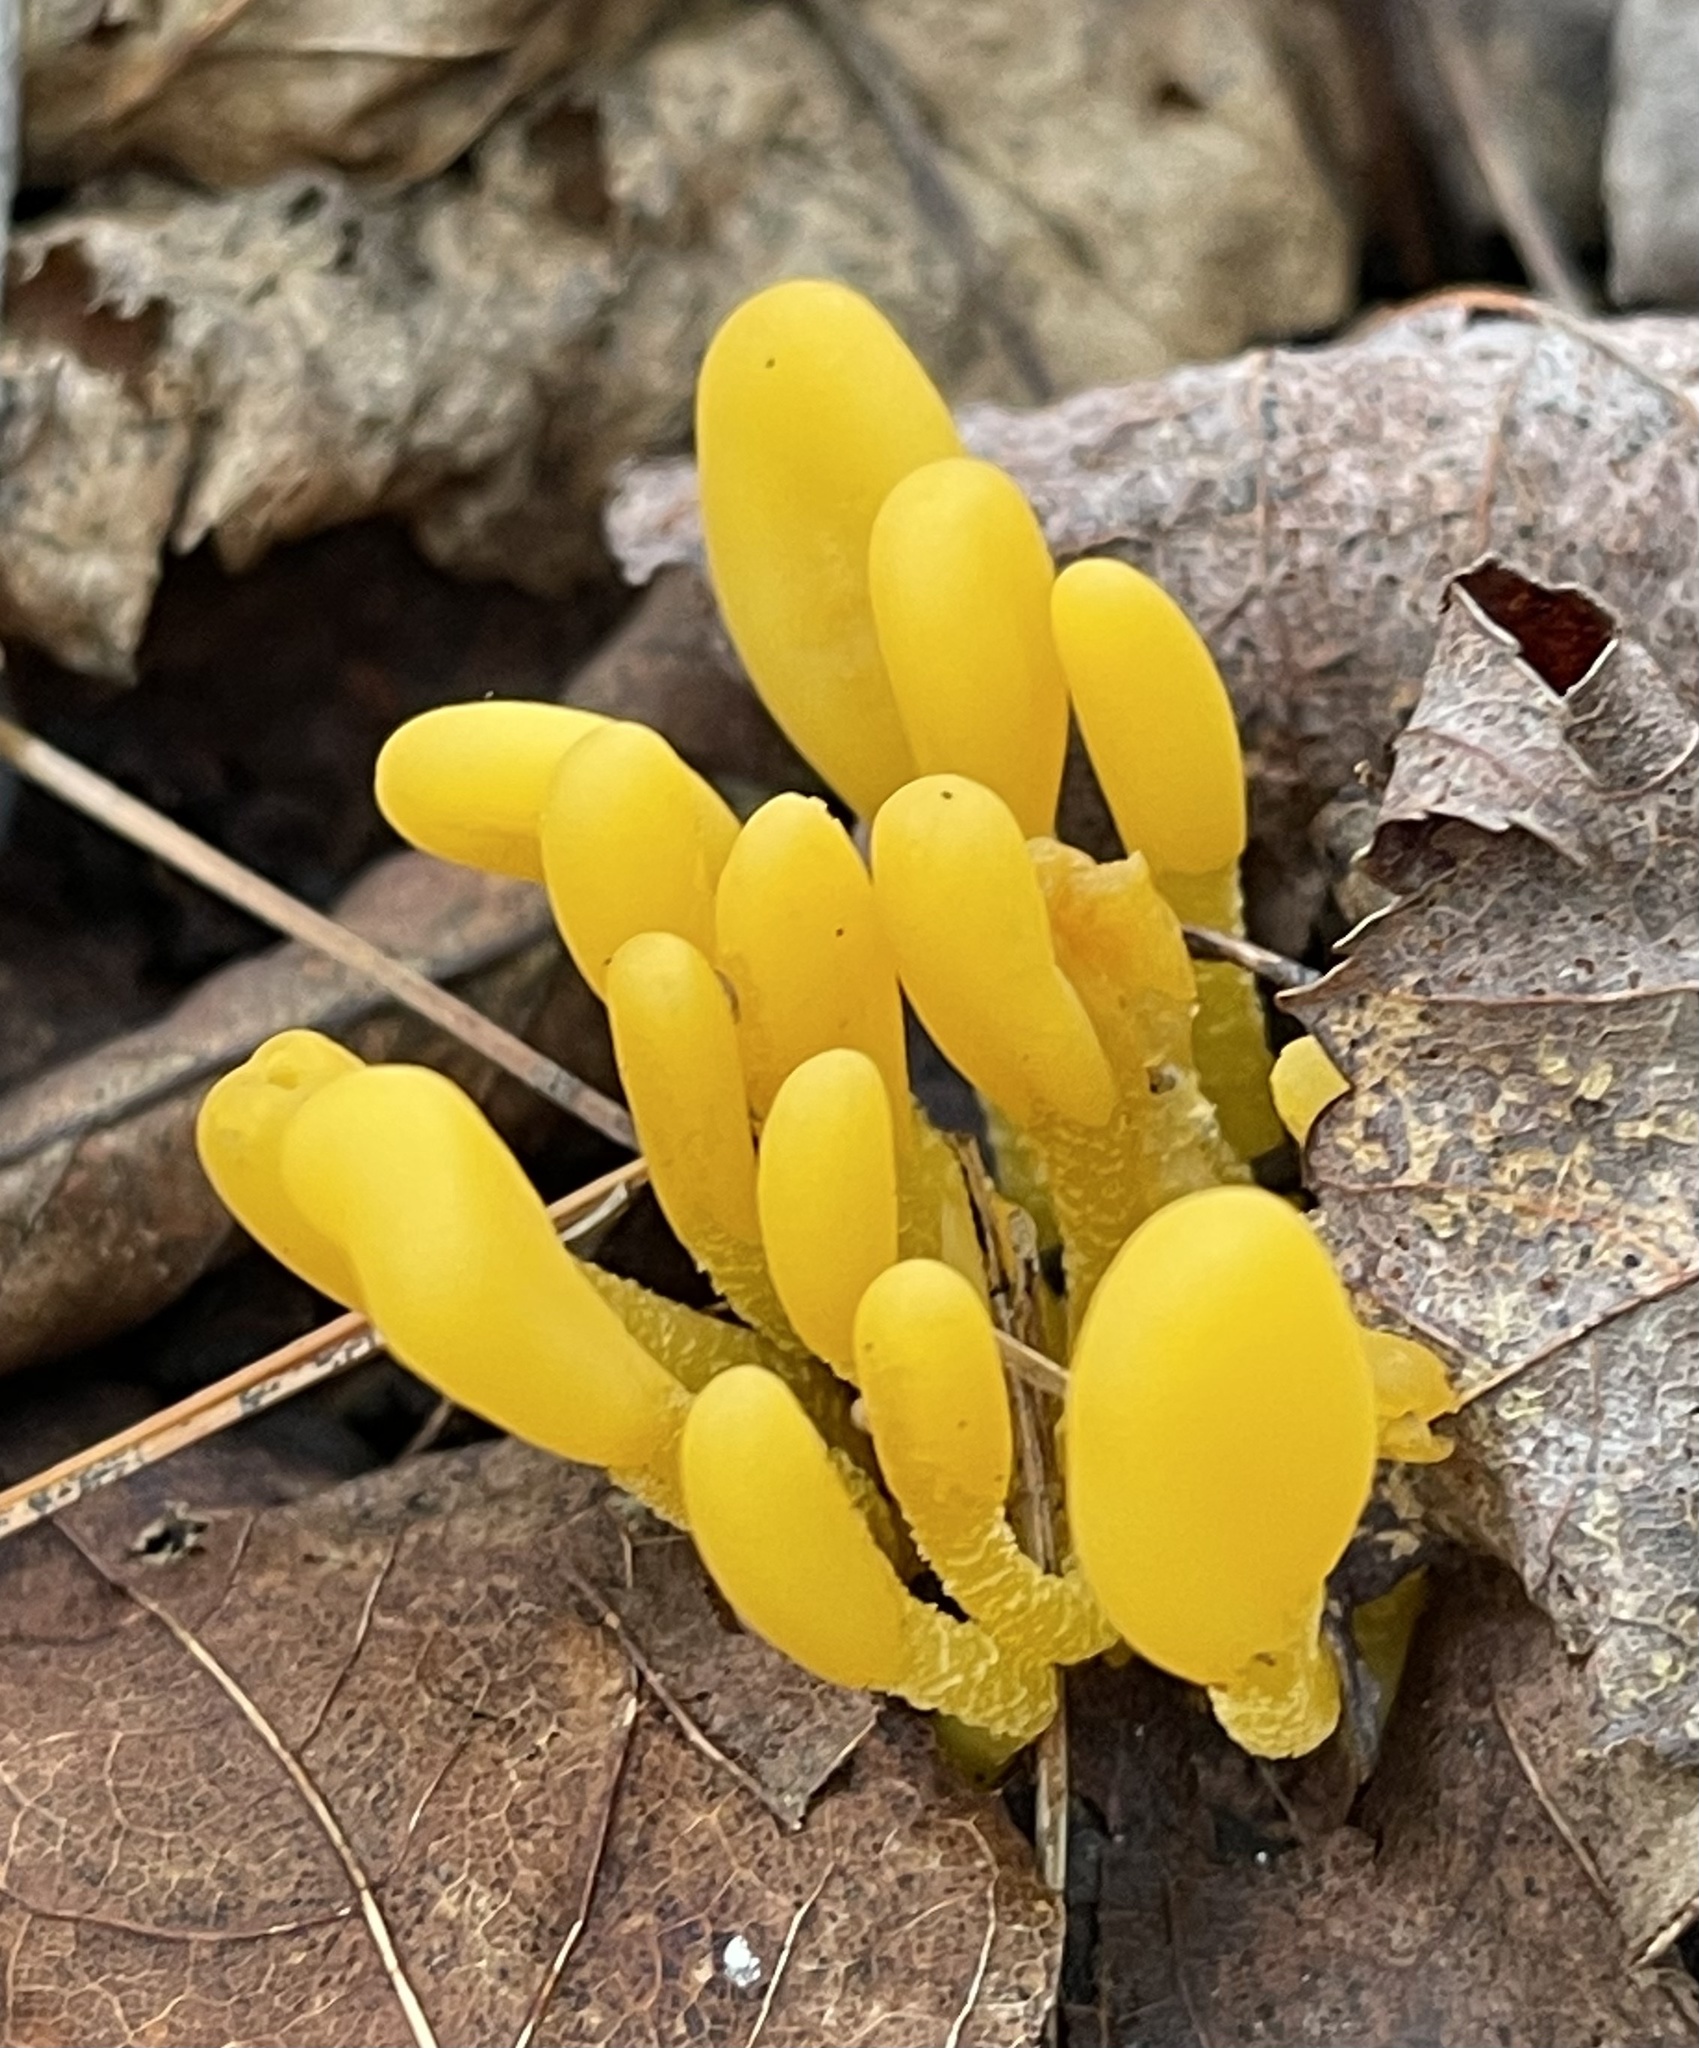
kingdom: Fungi
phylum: Ascomycota
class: Leotiomycetes
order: Leotiales
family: Leotiaceae
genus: Microglossum
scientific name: Microglossum rufum
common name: Orange earthtongue
